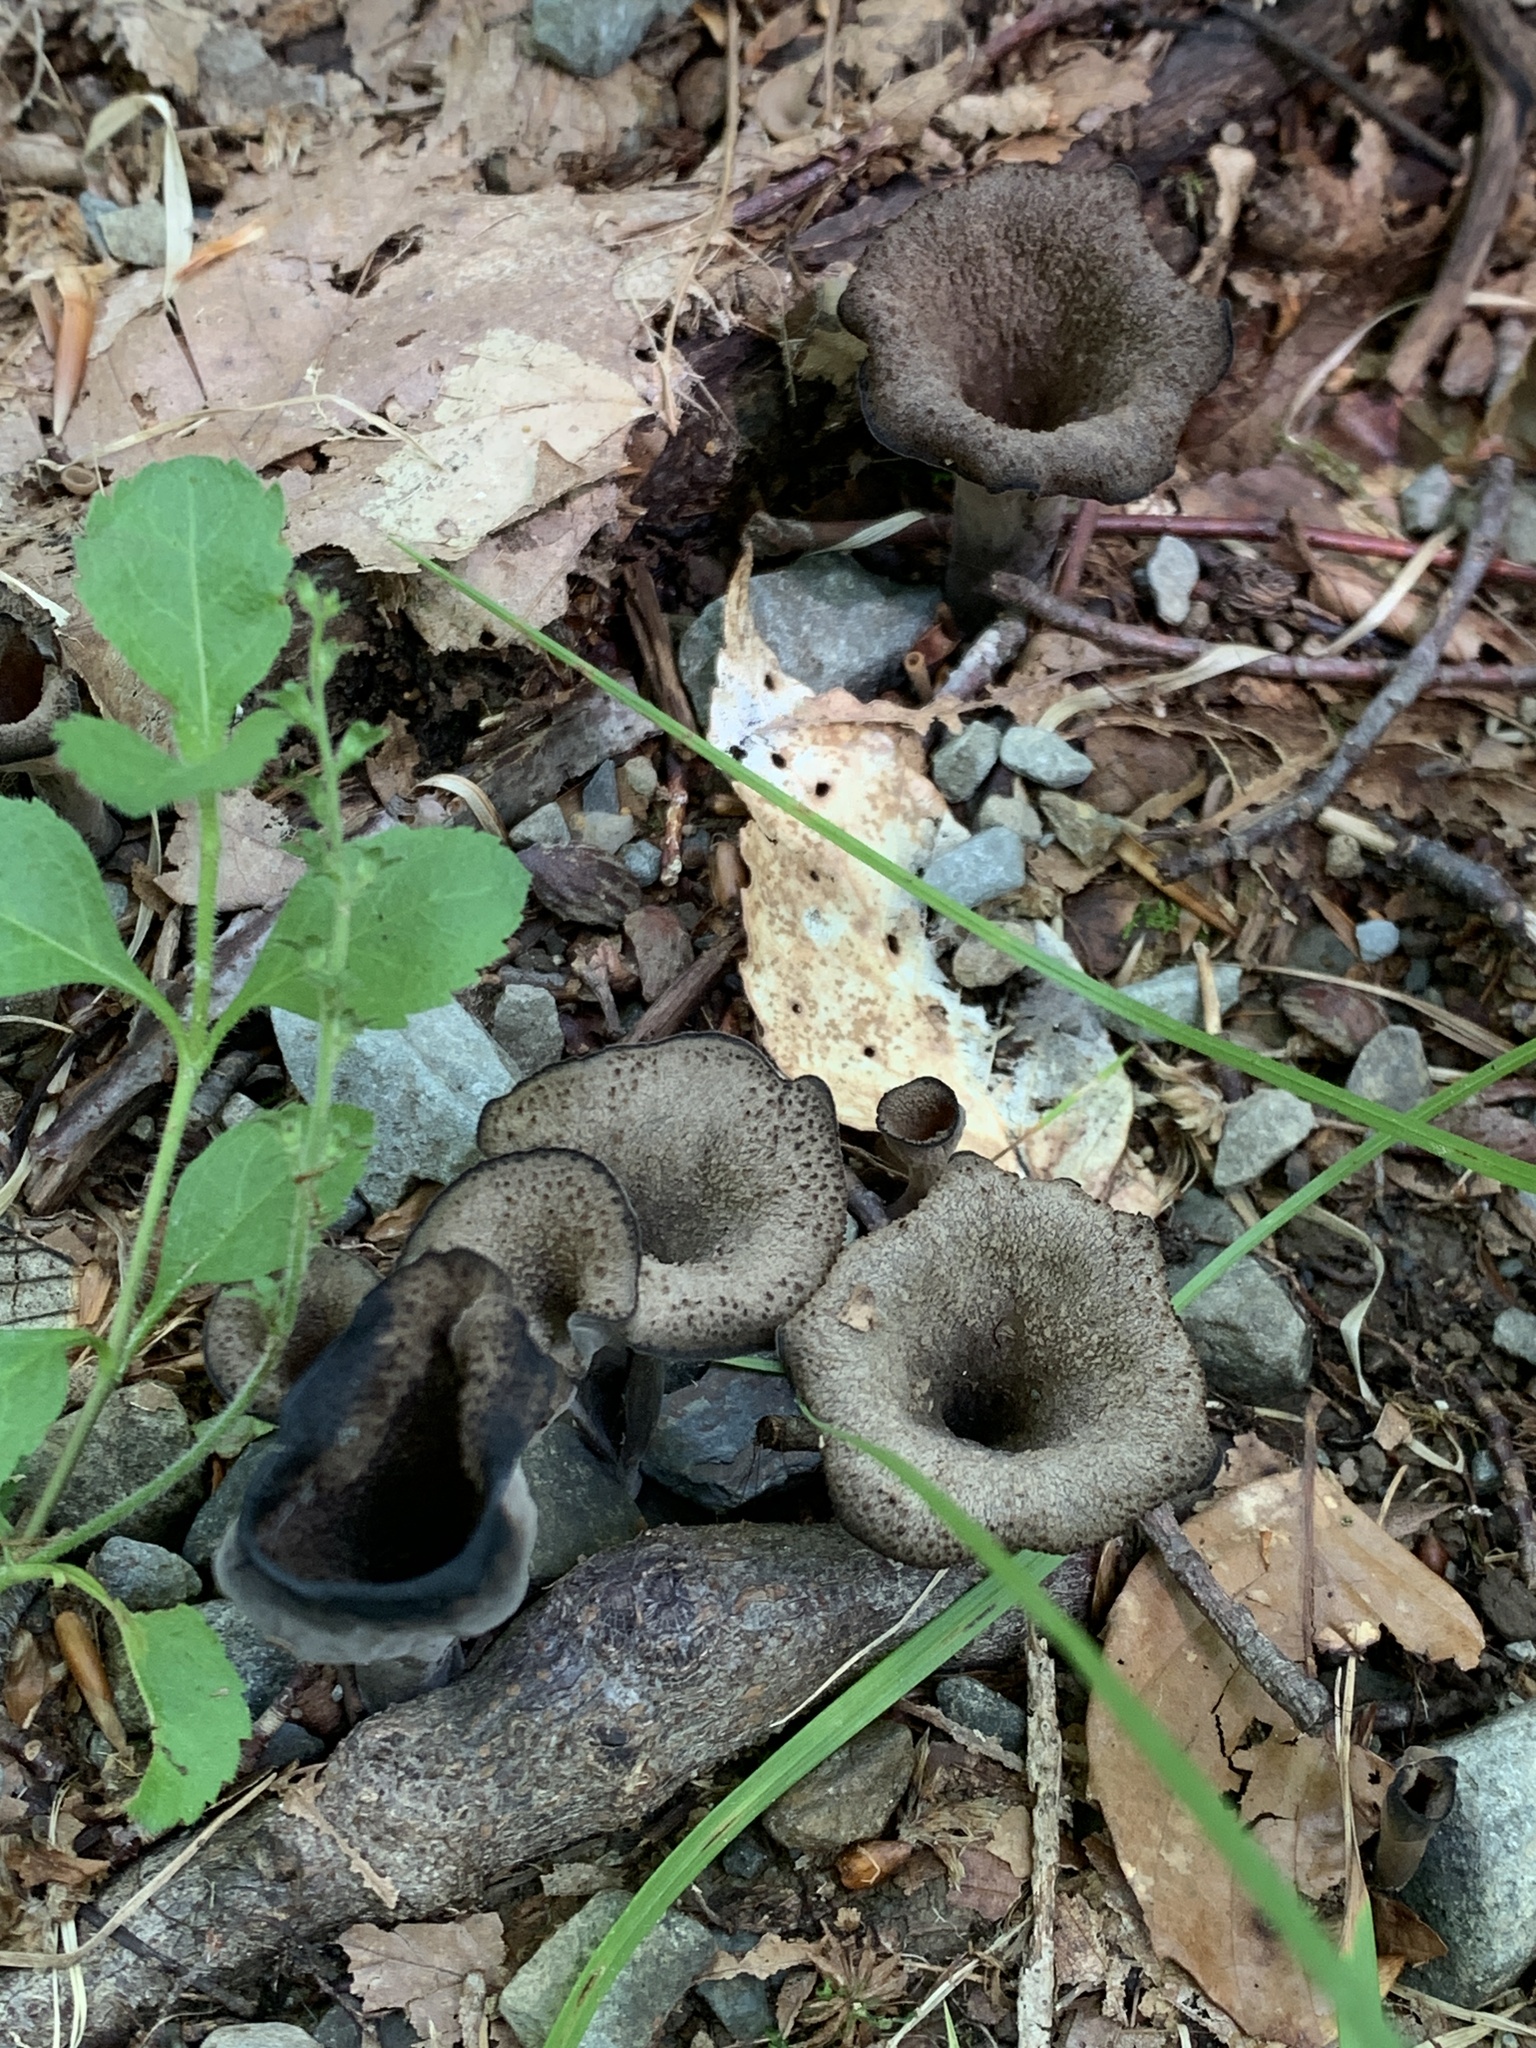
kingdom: Fungi
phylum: Basidiomycota
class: Agaricomycetes
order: Cantharellales
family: Hydnaceae
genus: Craterellus
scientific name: Craterellus cornucopioides
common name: Horn of plenty
